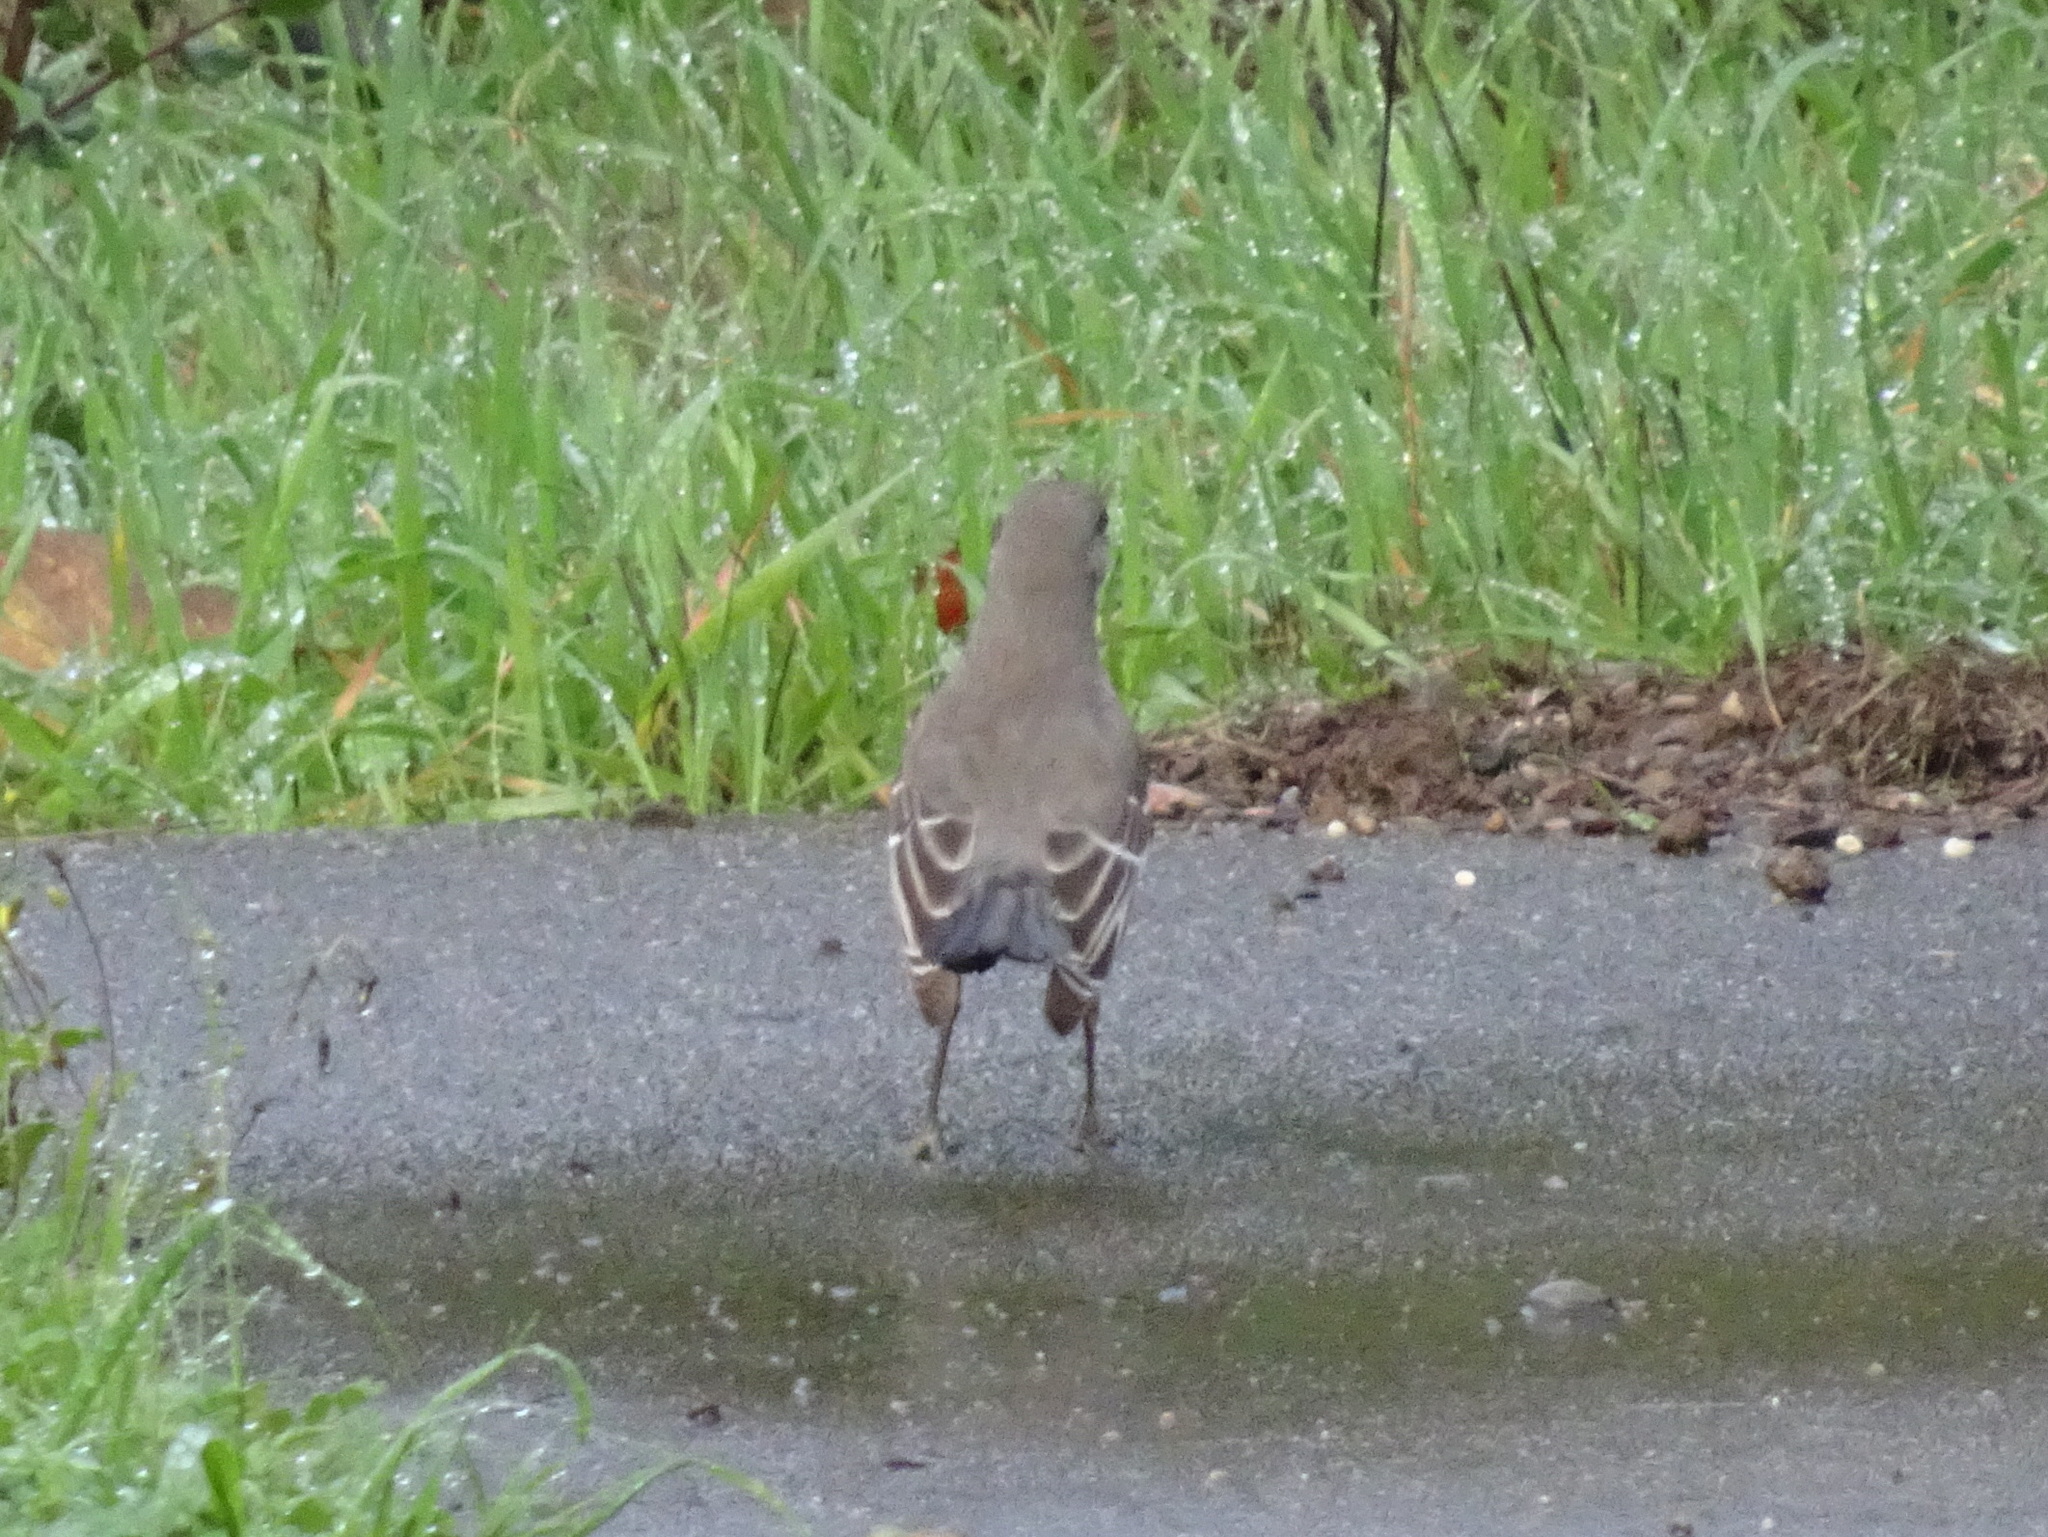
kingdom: Animalia
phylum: Chordata
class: Aves
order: Passeriformes
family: Mimidae
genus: Mimus
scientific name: Mimus polyglottos
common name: Northern mockingbird
